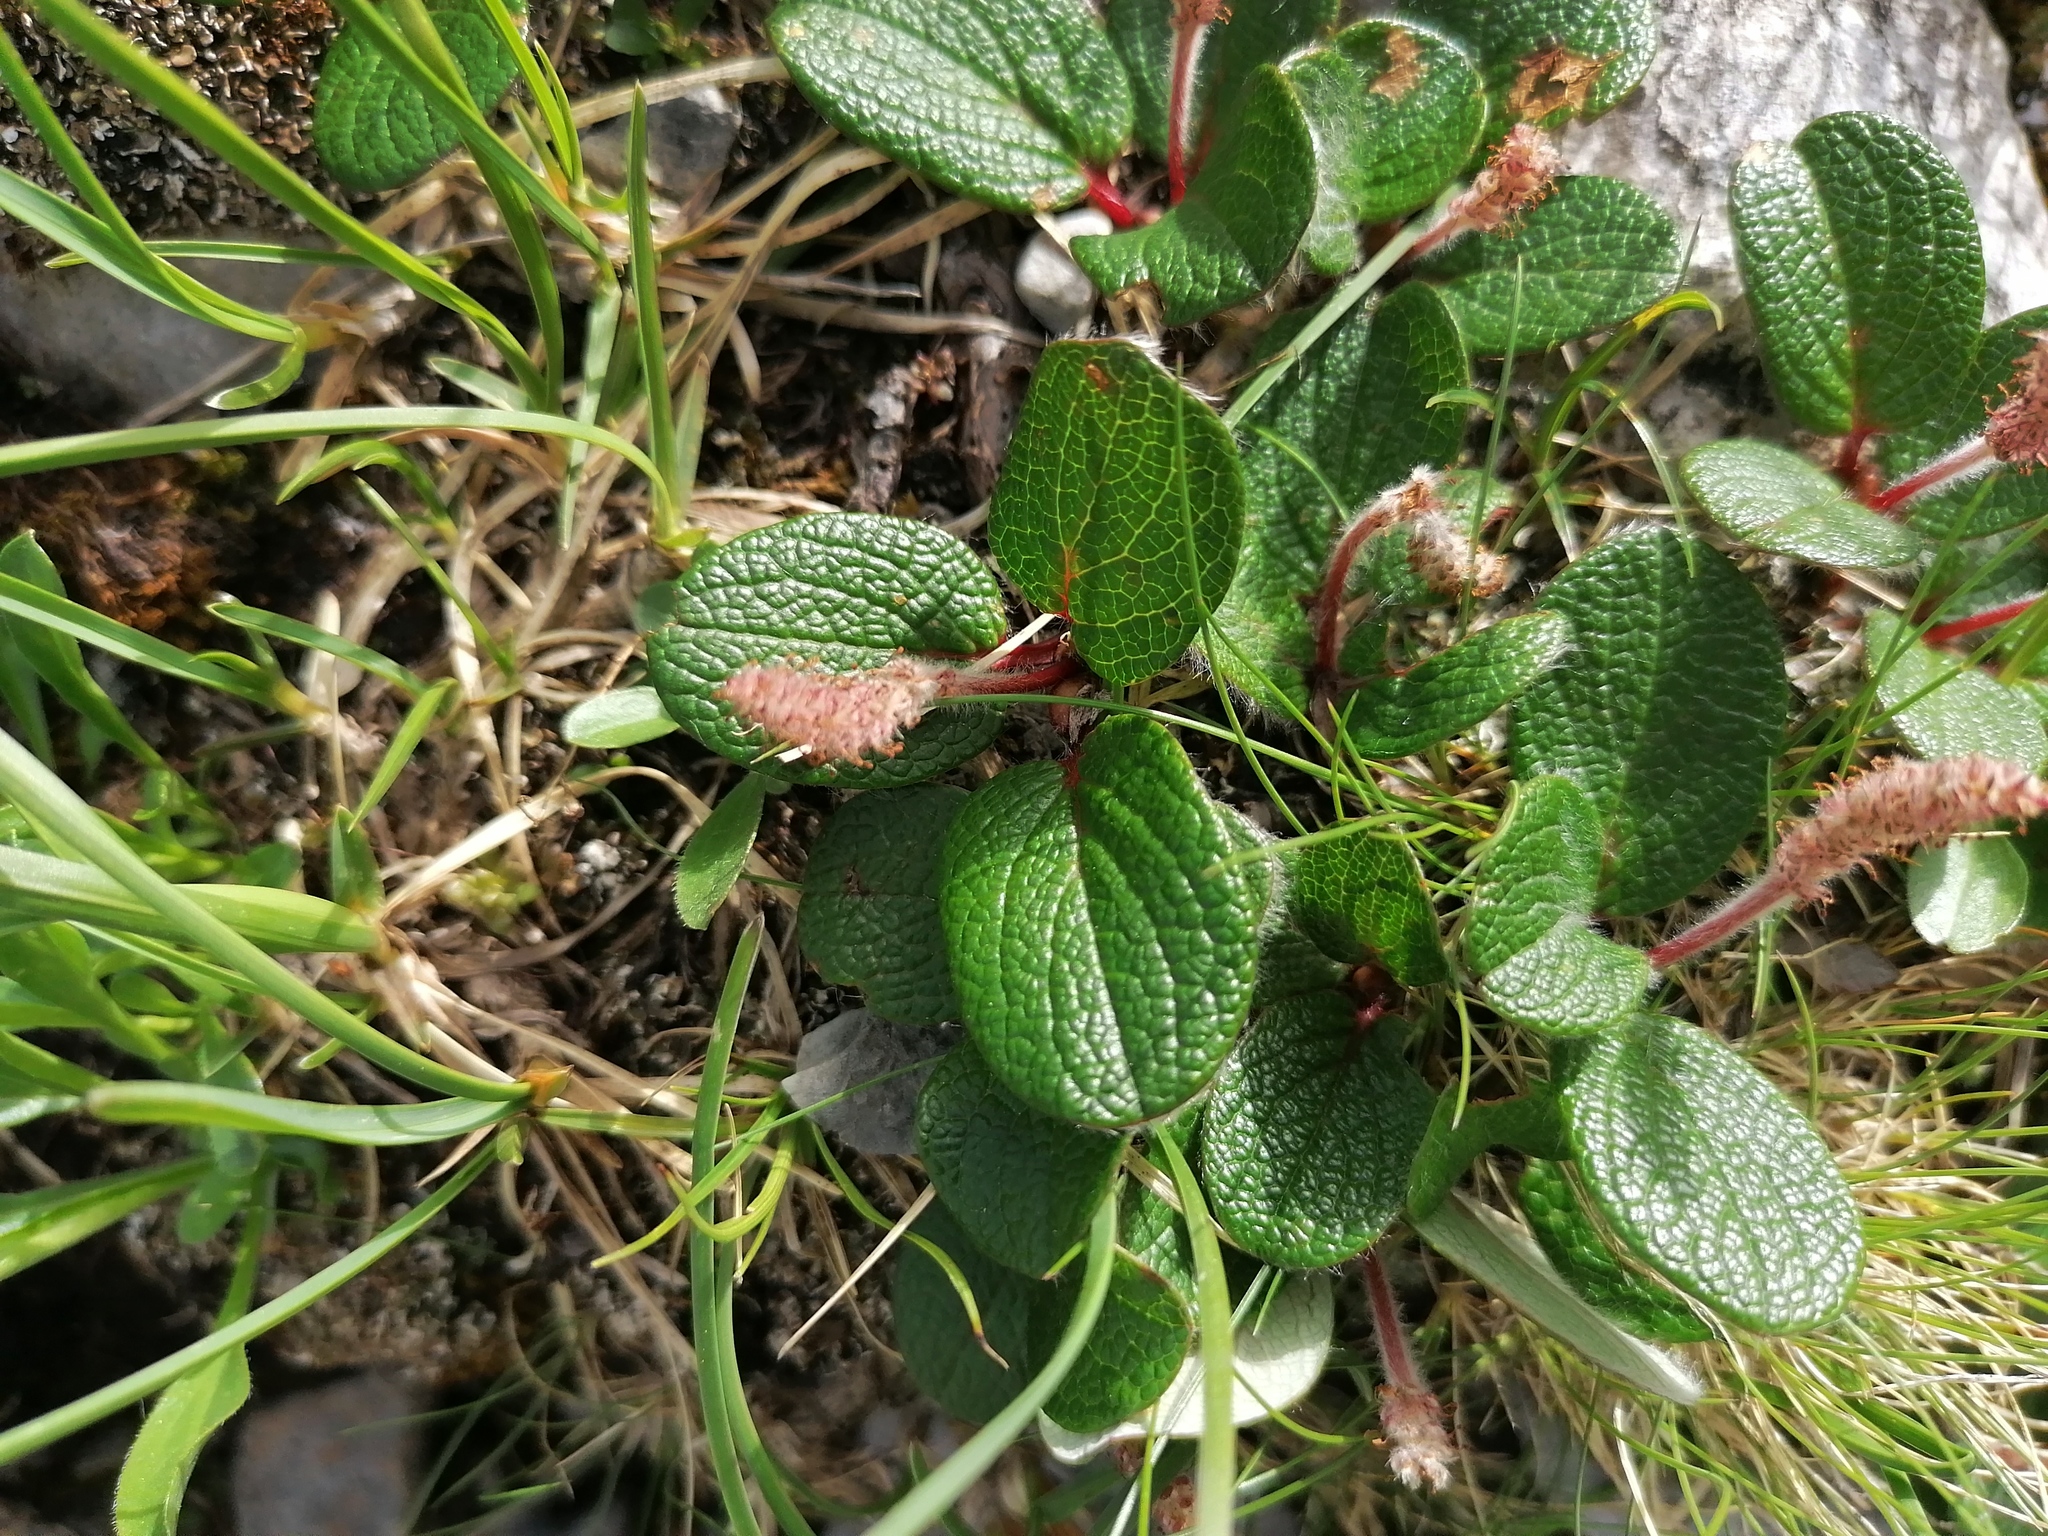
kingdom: Plantae
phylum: Tracheophyta
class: Magnoliopsida
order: Malpighiales
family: Salicaceae
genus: Salix
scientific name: Salix reticulata
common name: Net-leaved willow
